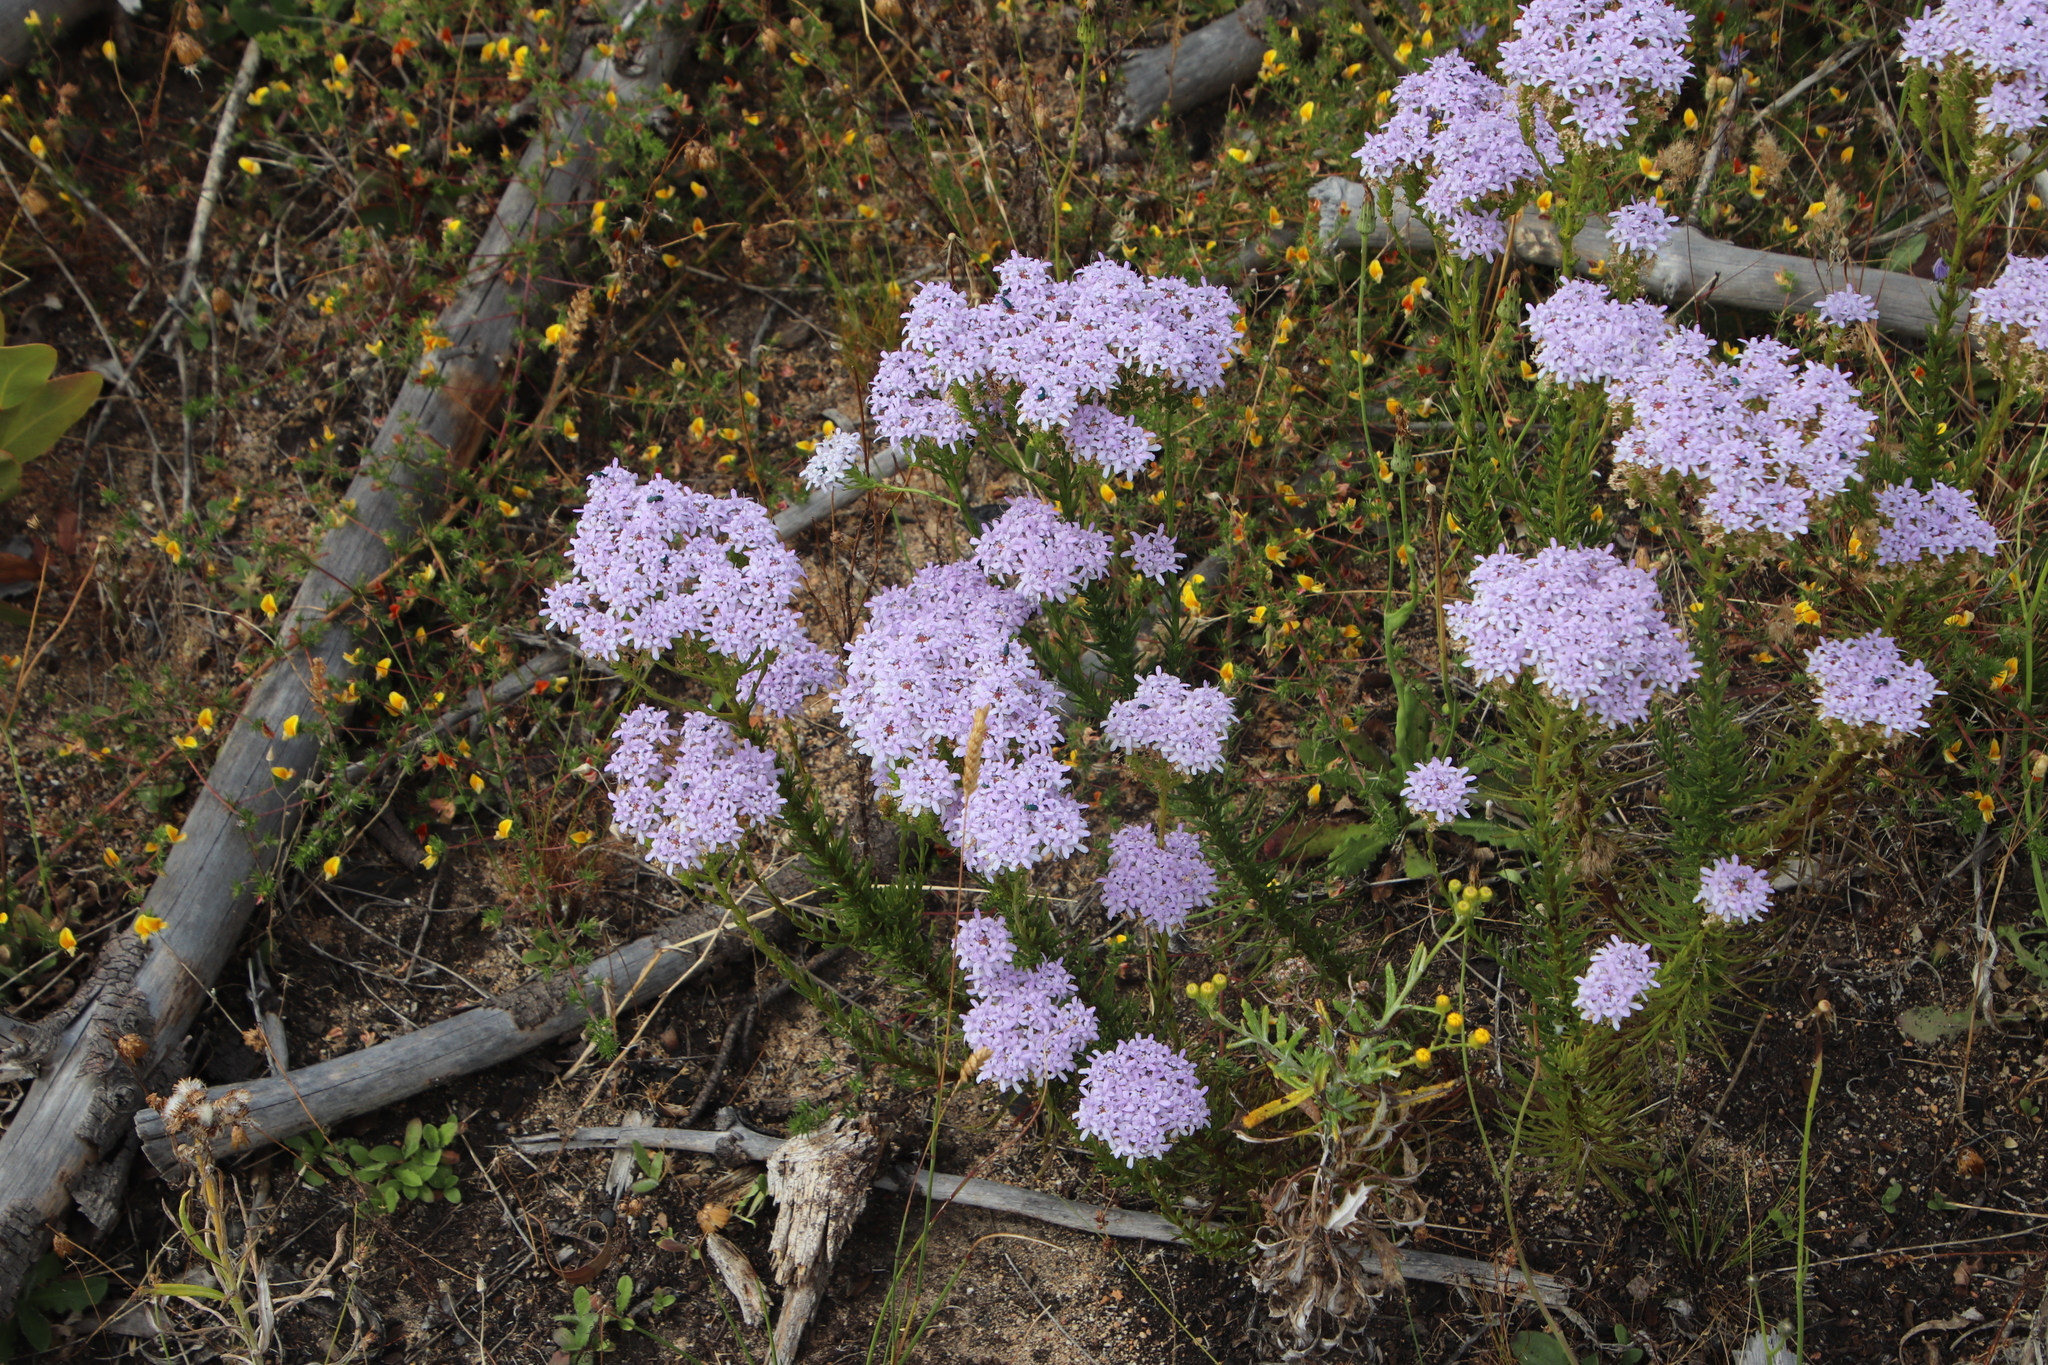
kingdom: Plantae
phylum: Tracheophyta
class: Magnoliopsida
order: Lamiales
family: Scrophulariaceae
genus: Pseudoselago
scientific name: Pseudoselago spuria
